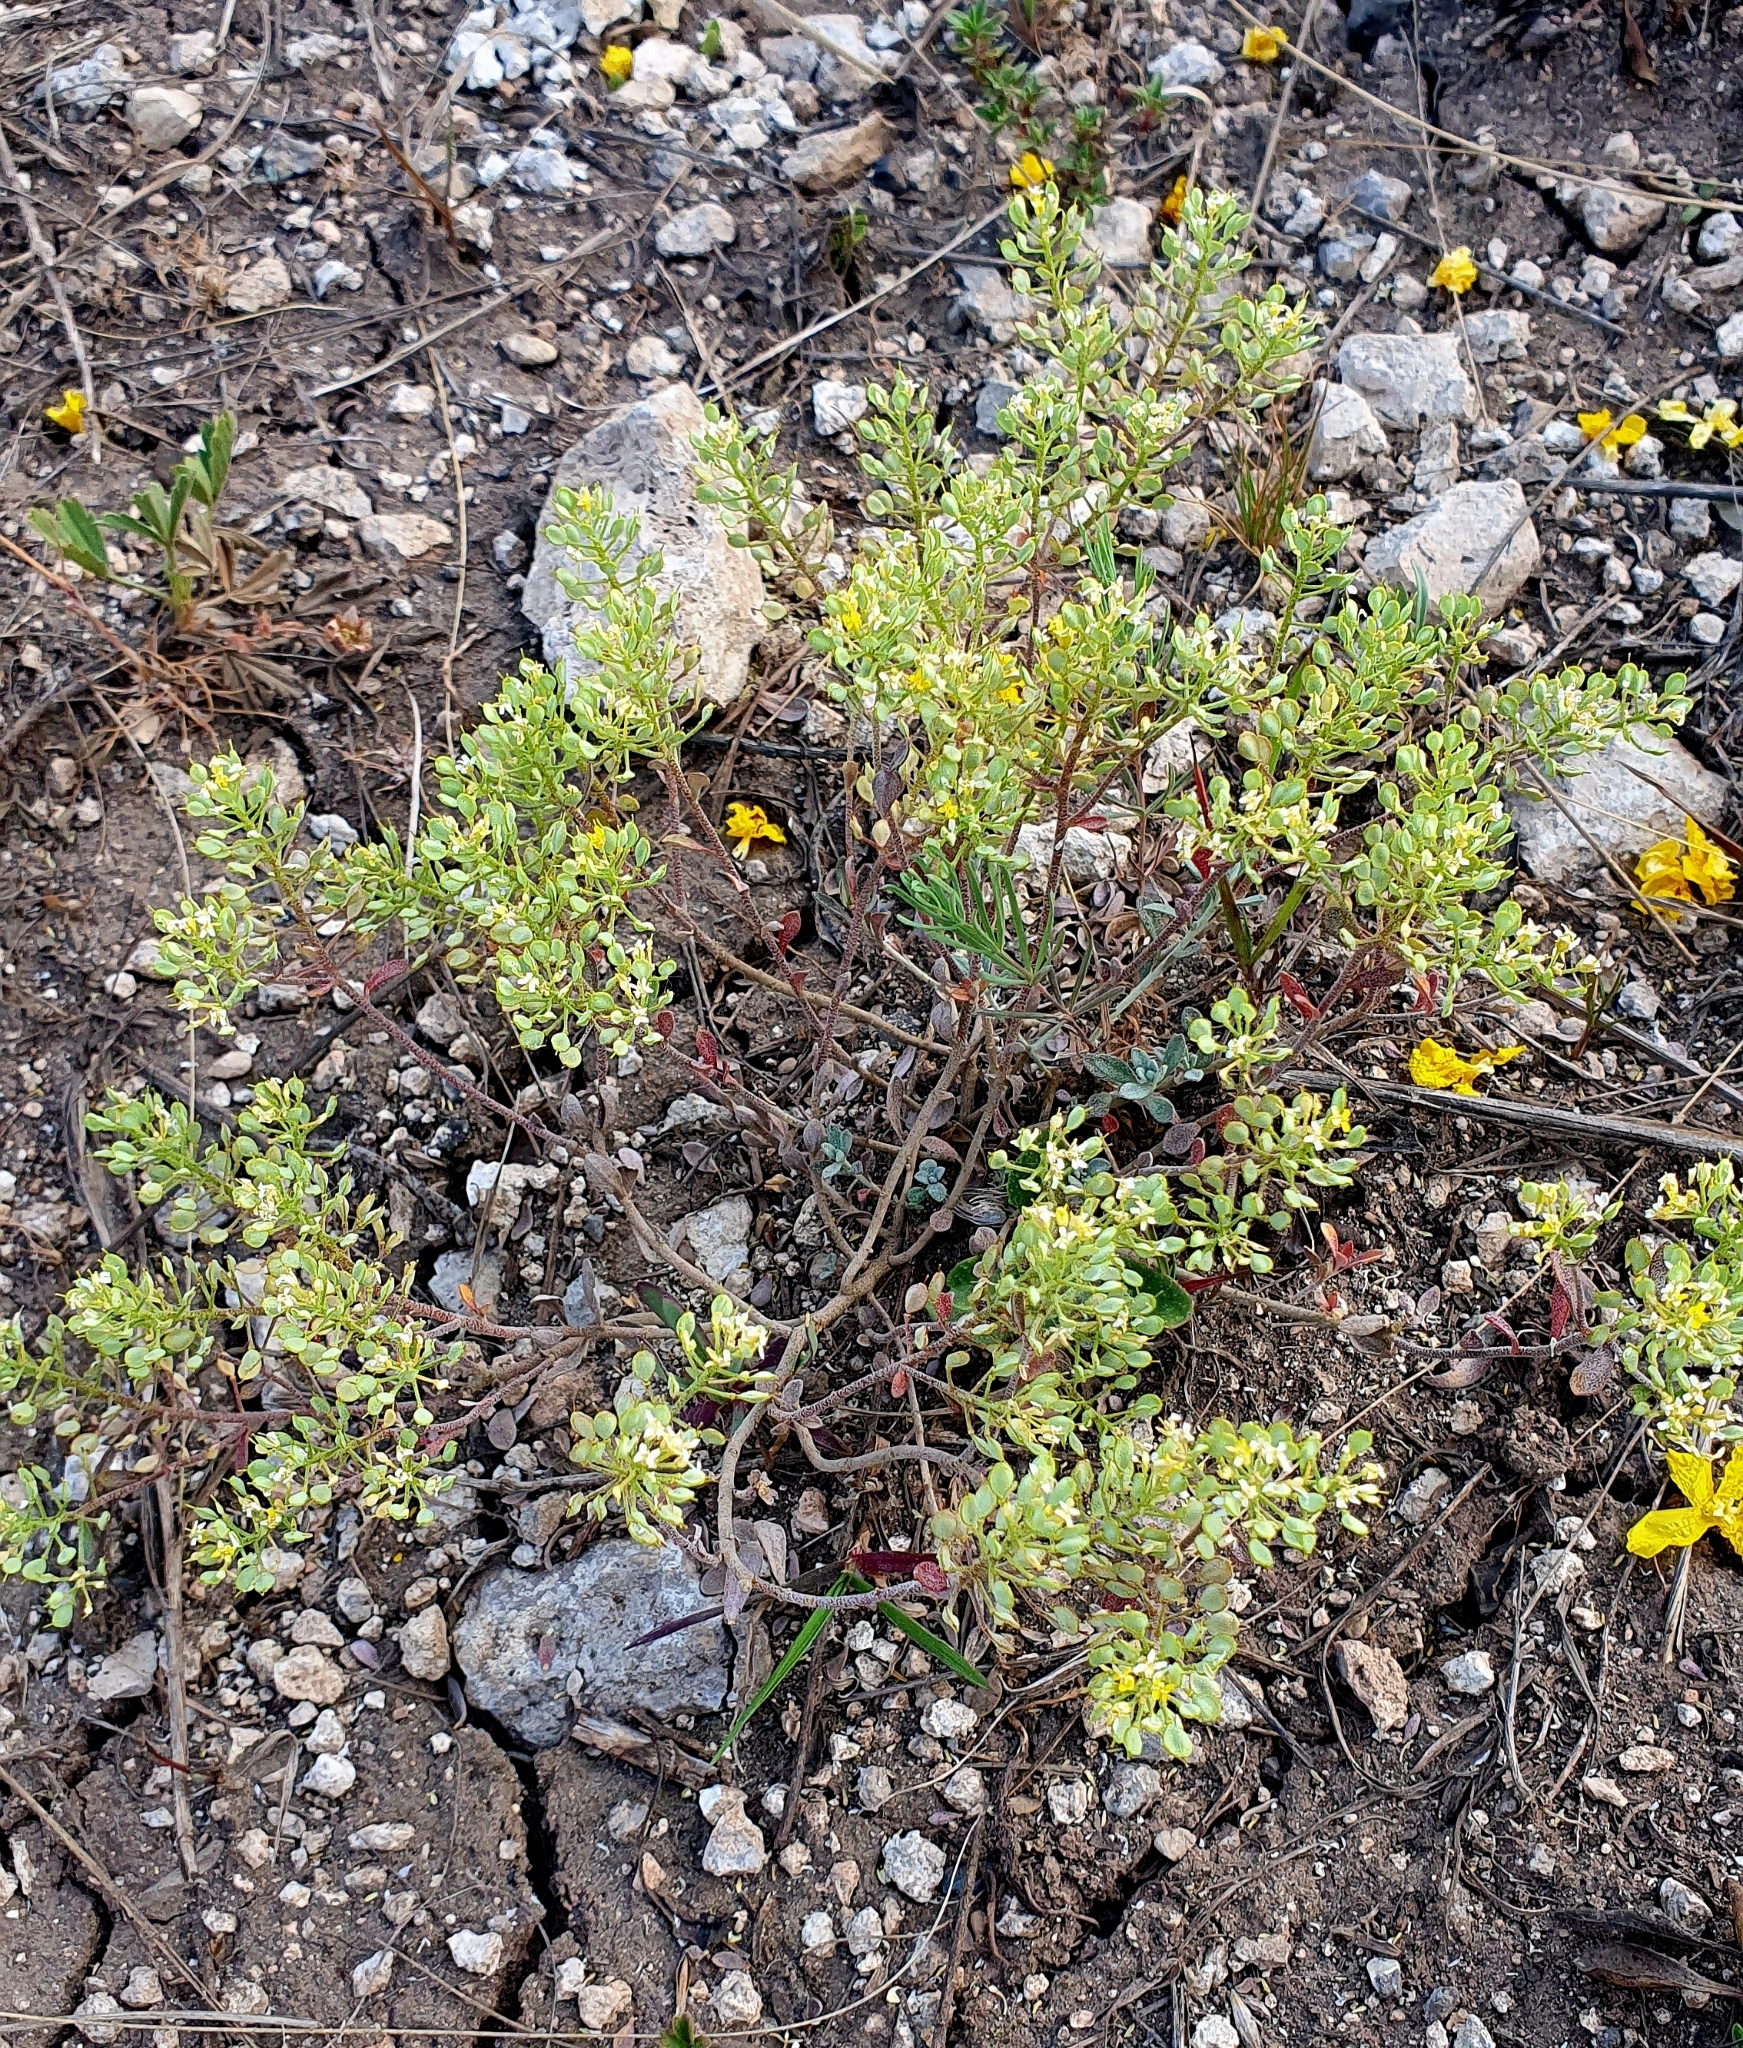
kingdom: Plantae
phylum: Tracheophyta
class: Magnoliopsida
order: Brassicales
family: Brassicaceae
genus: Odontarrhena
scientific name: Odontarrhena tortuosa
